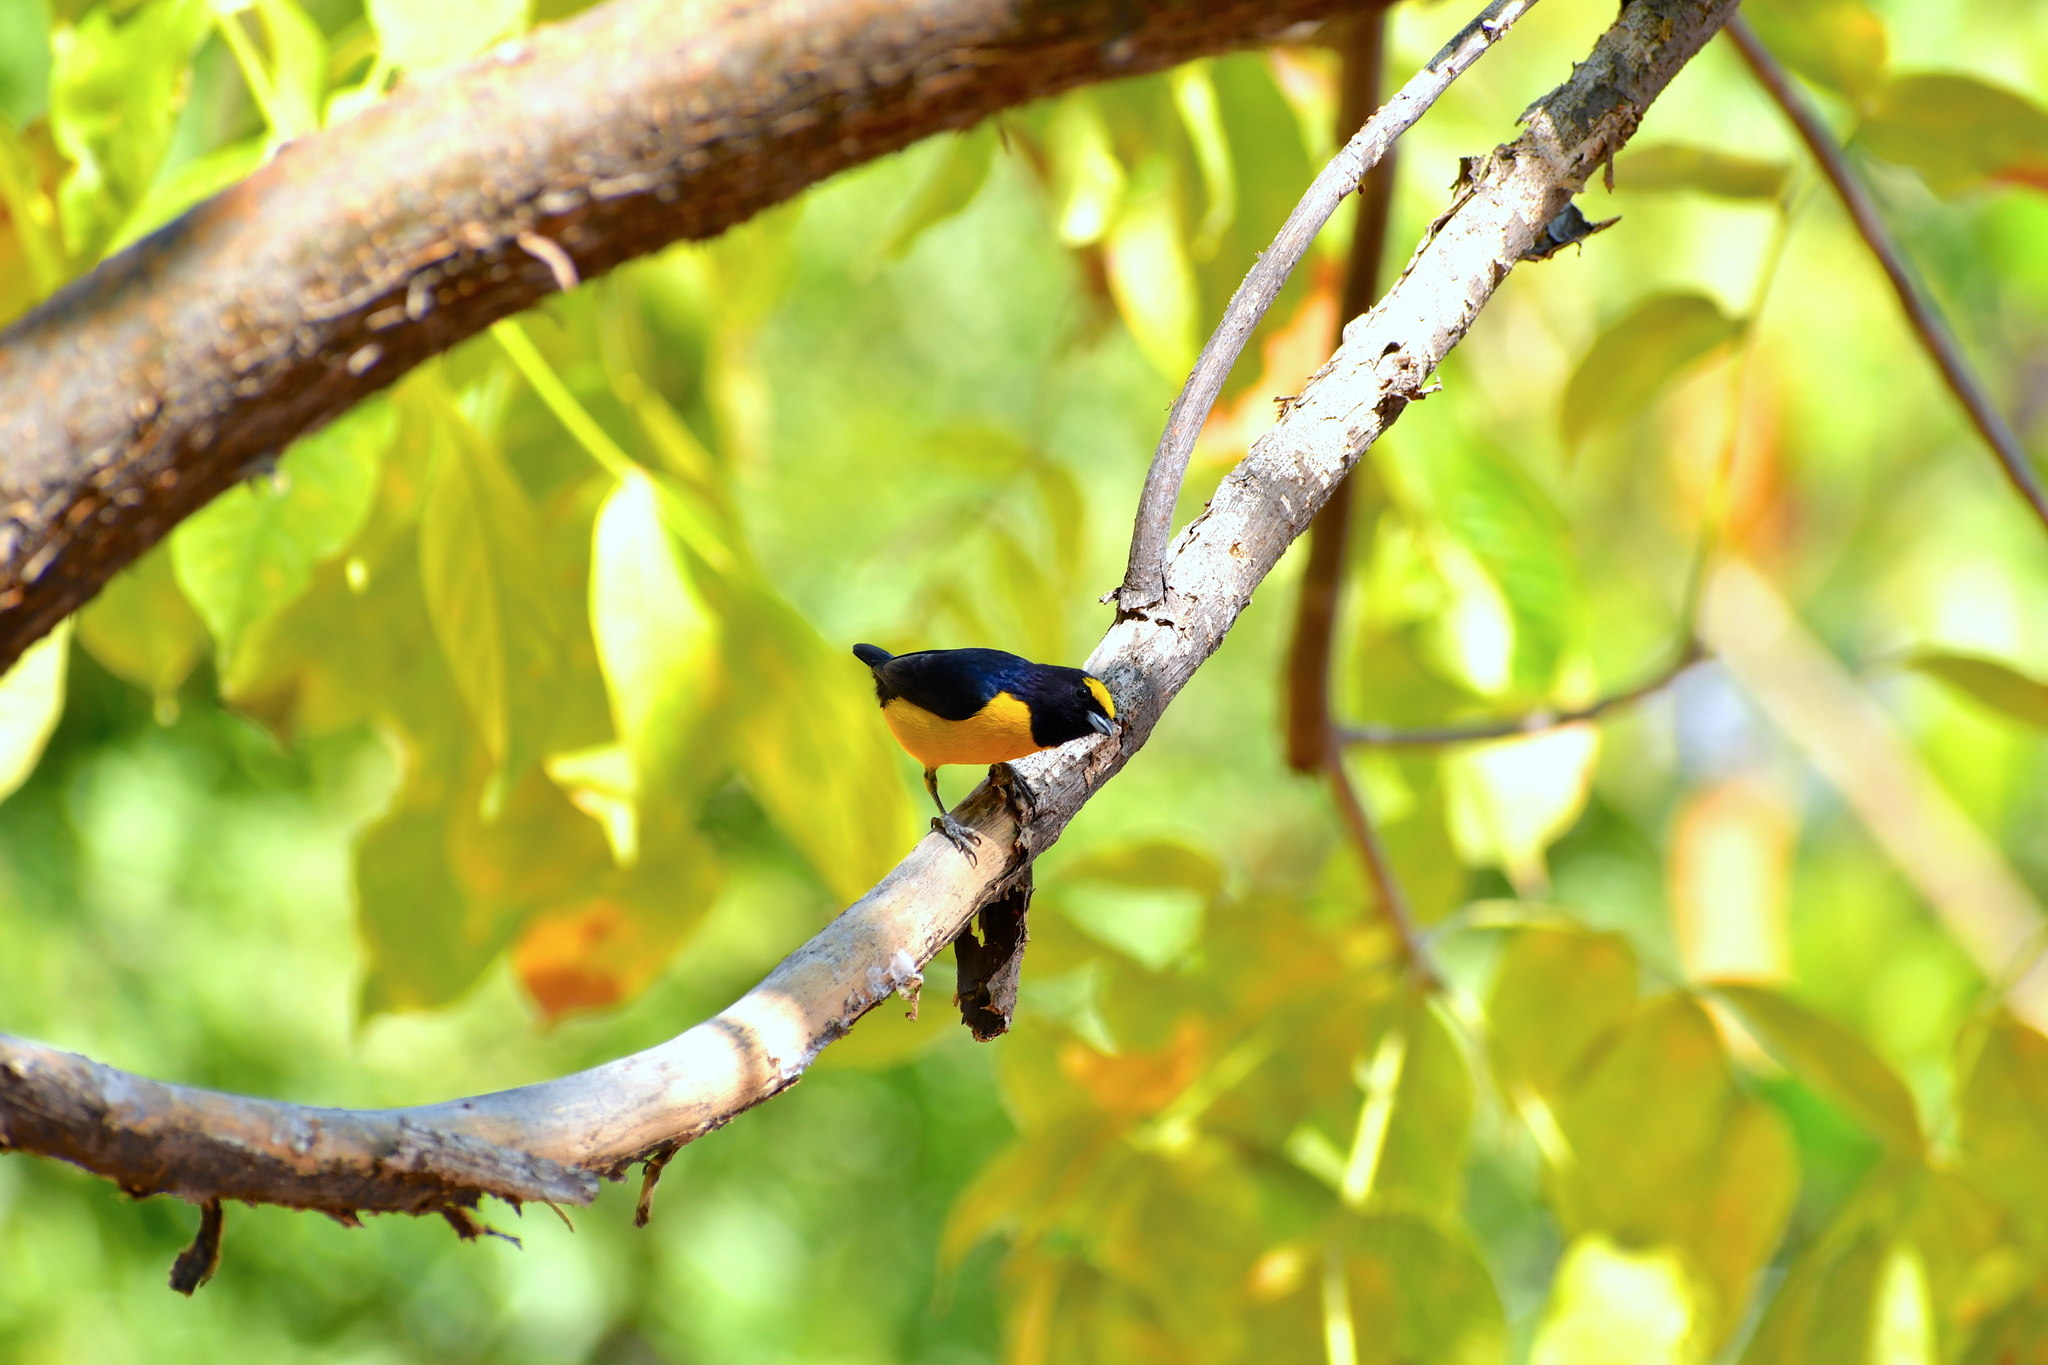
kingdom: Animalia
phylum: Chordata
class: Aves
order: Passeriformes
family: Fringillidae
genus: Euphonia
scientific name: Euphonia affinis
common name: Scrub euphonia
